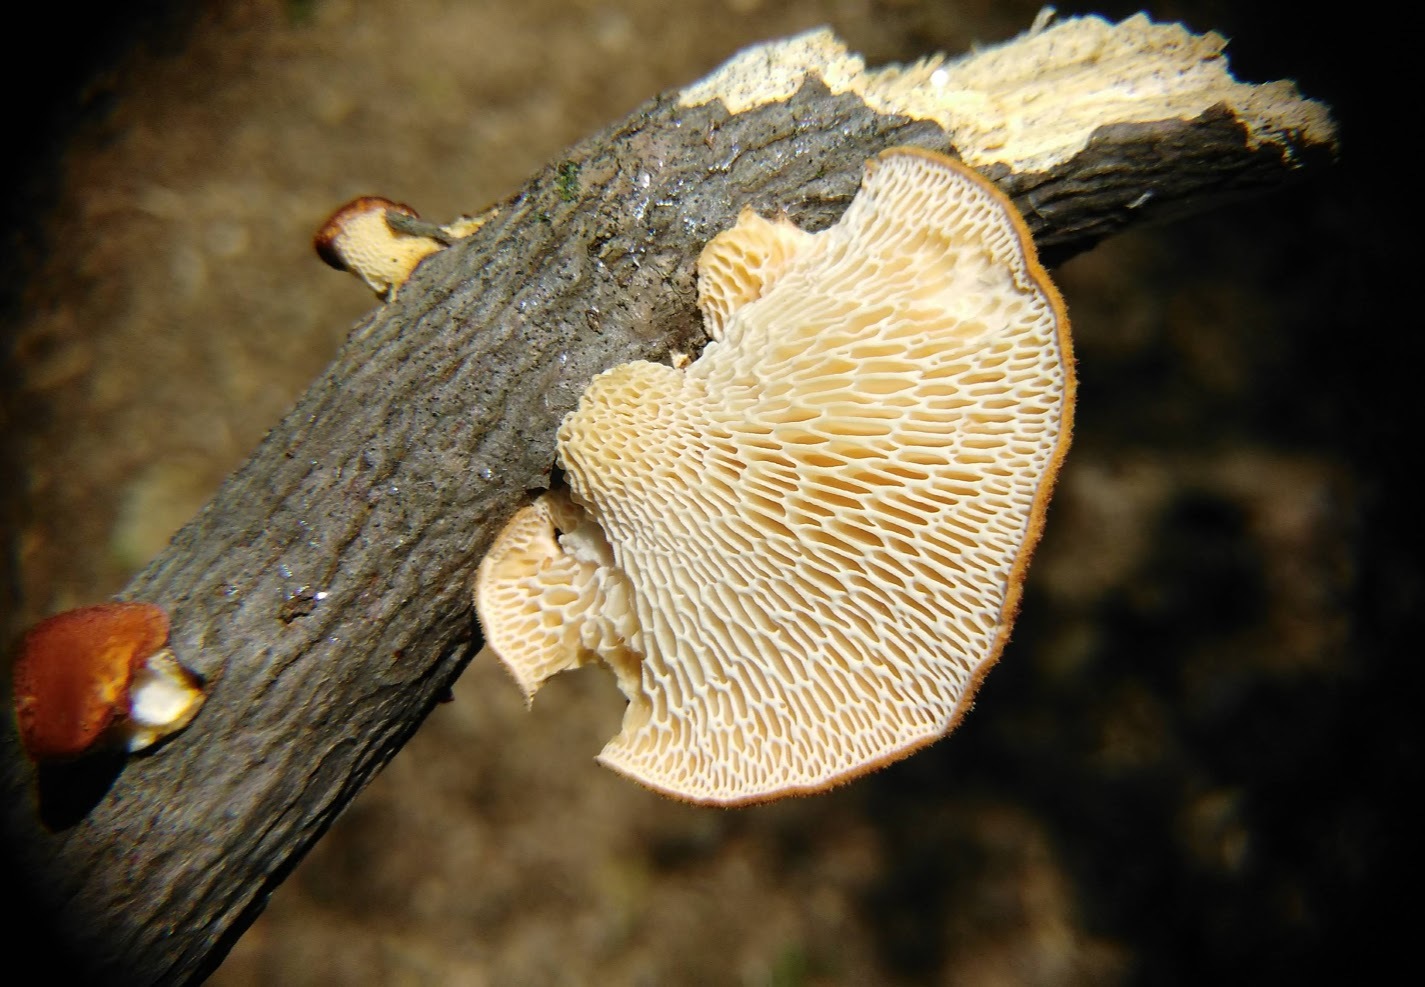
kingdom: Fungi
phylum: Basidiomycota
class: Agaricomycetes
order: Polyporales
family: Polyporaceae
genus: Neofavolus
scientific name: Neofavolus alveolaris
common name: Hexagonal-pored polypore
